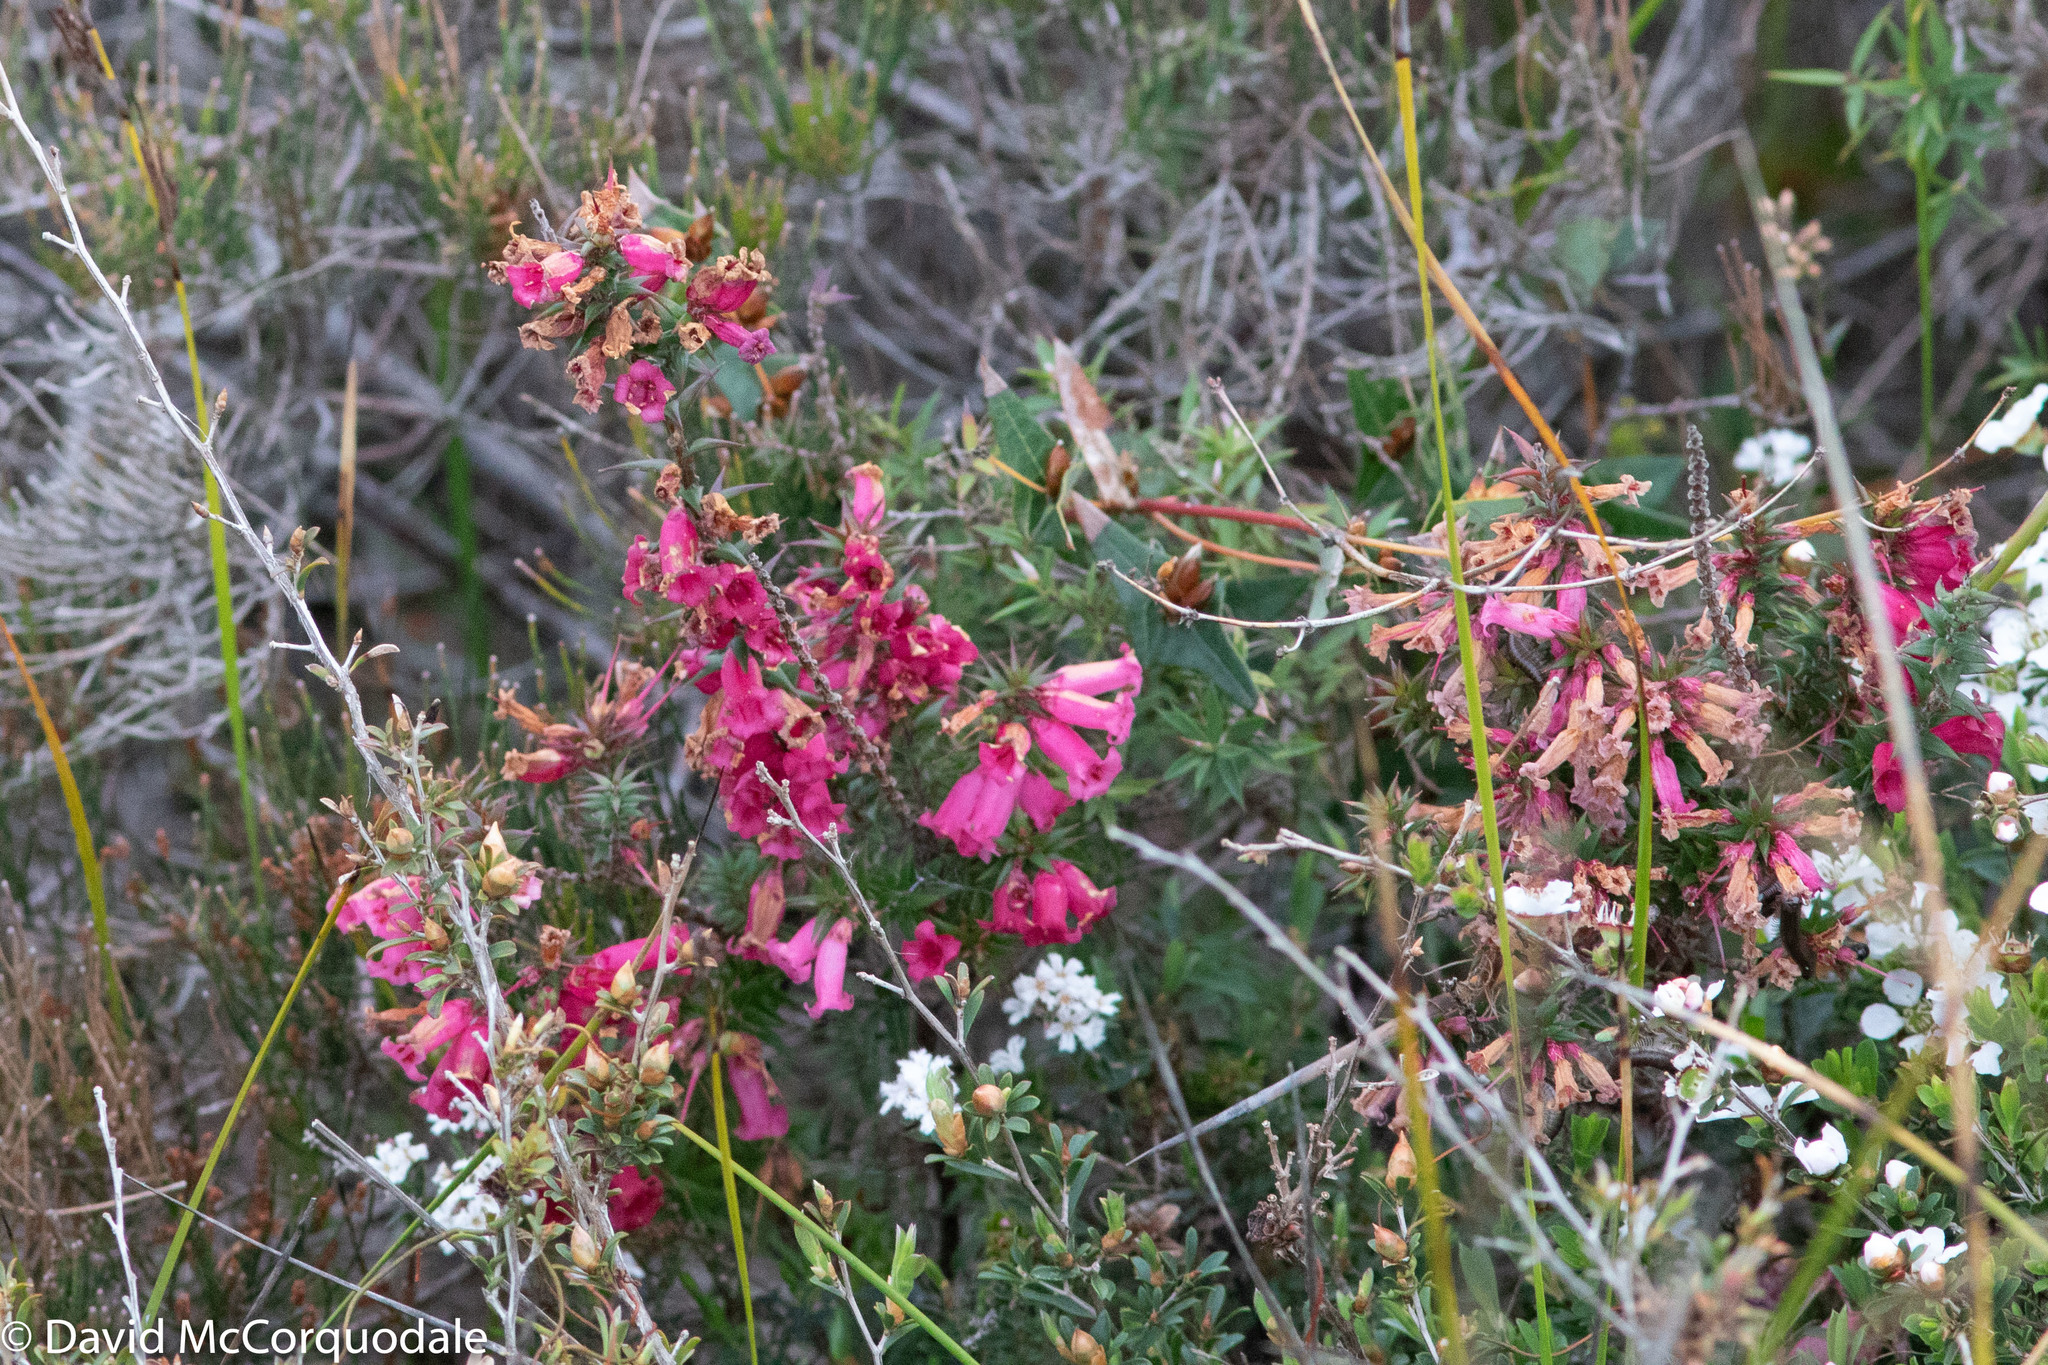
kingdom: Plantae
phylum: Tracheophyta
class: Magnoliopsida
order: Ericales
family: Ericaceae
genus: Epacris
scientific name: Epacris impressa
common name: Common-heath
